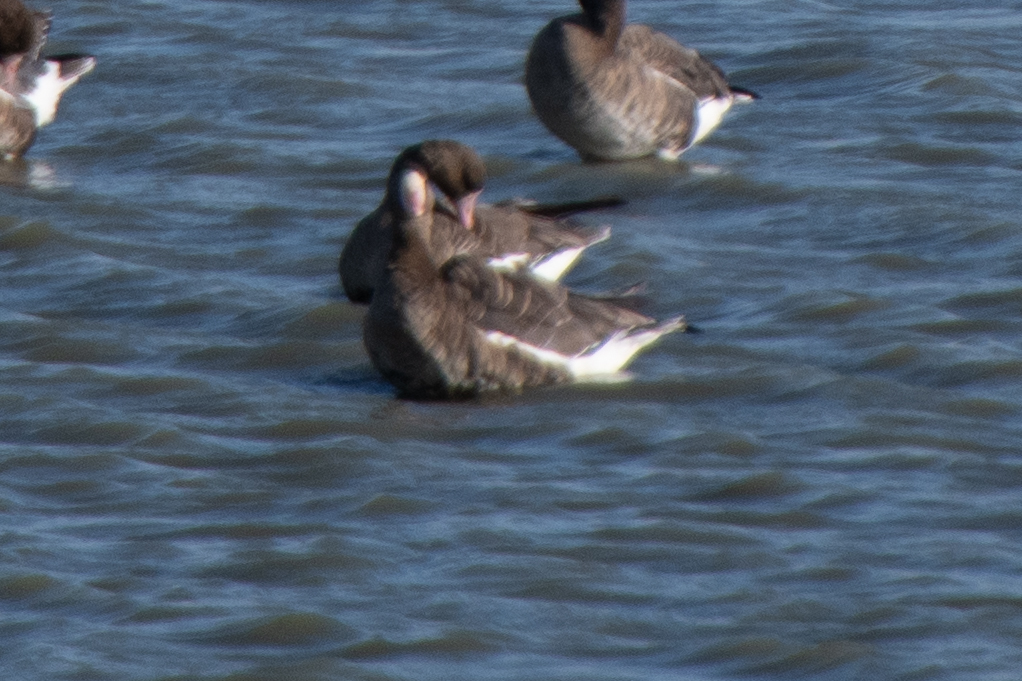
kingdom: Animalia
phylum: Chordata
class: Aves
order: Anseriformes
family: Anatidae
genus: Anser
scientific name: Anser albifrons
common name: Greater white-fronted goose
